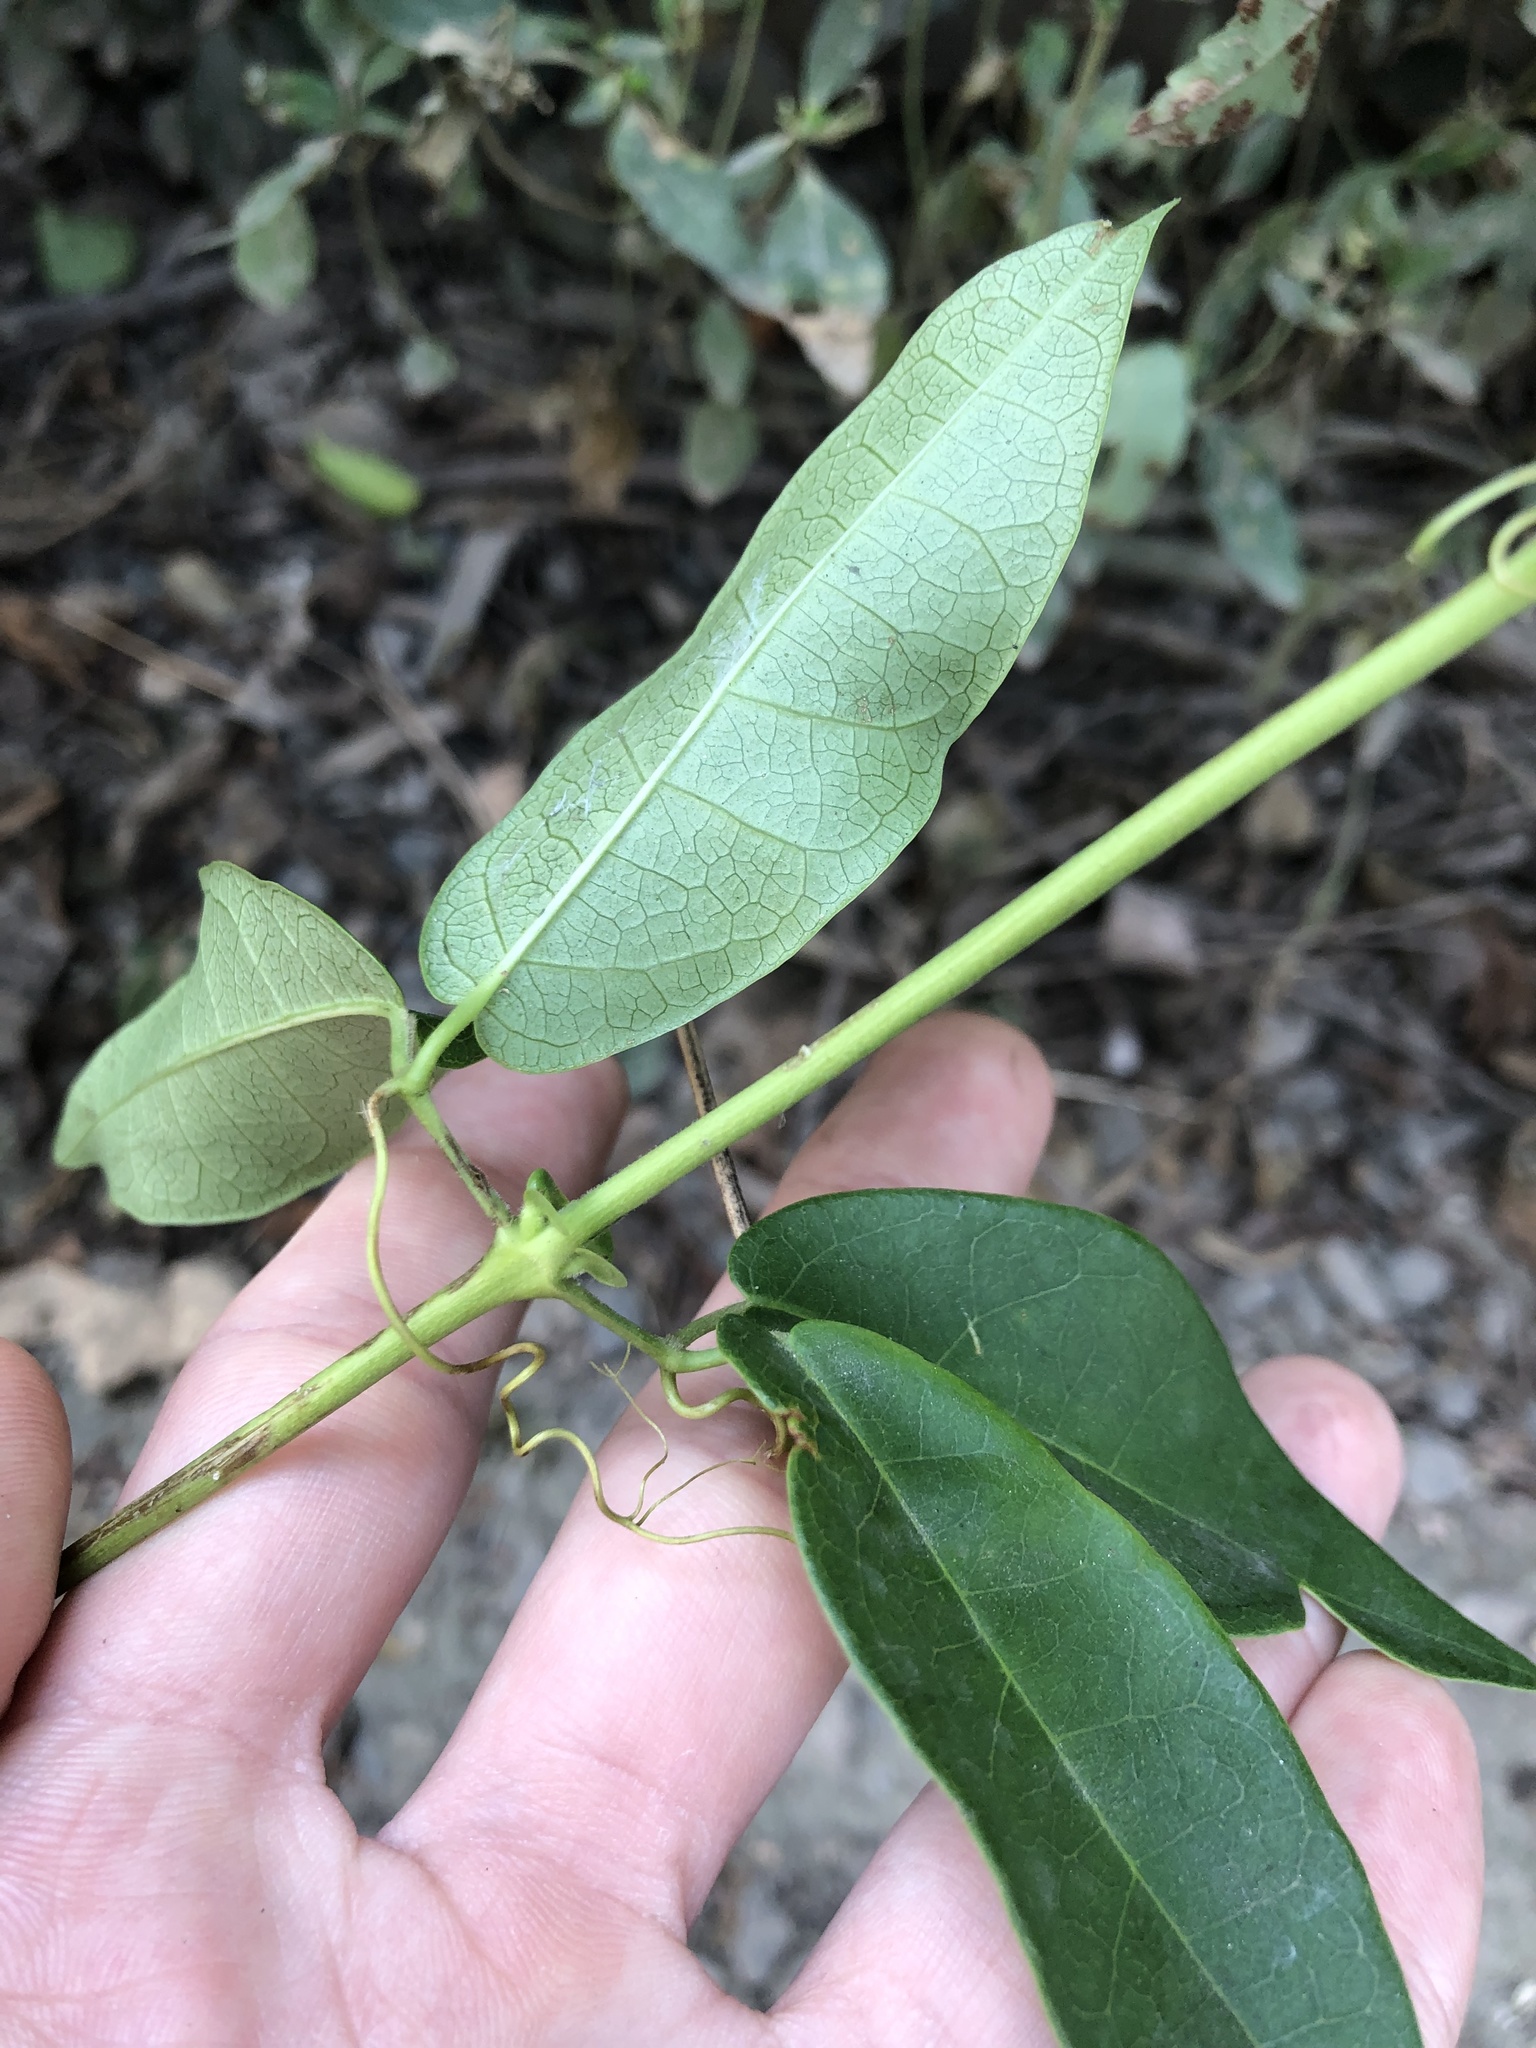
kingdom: Plantae
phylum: Tracheophyta
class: Magnoliopsida
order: Lamiales
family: Bignoniaceae
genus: Bignonia
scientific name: Bignonia capreolata
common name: Crossvine
